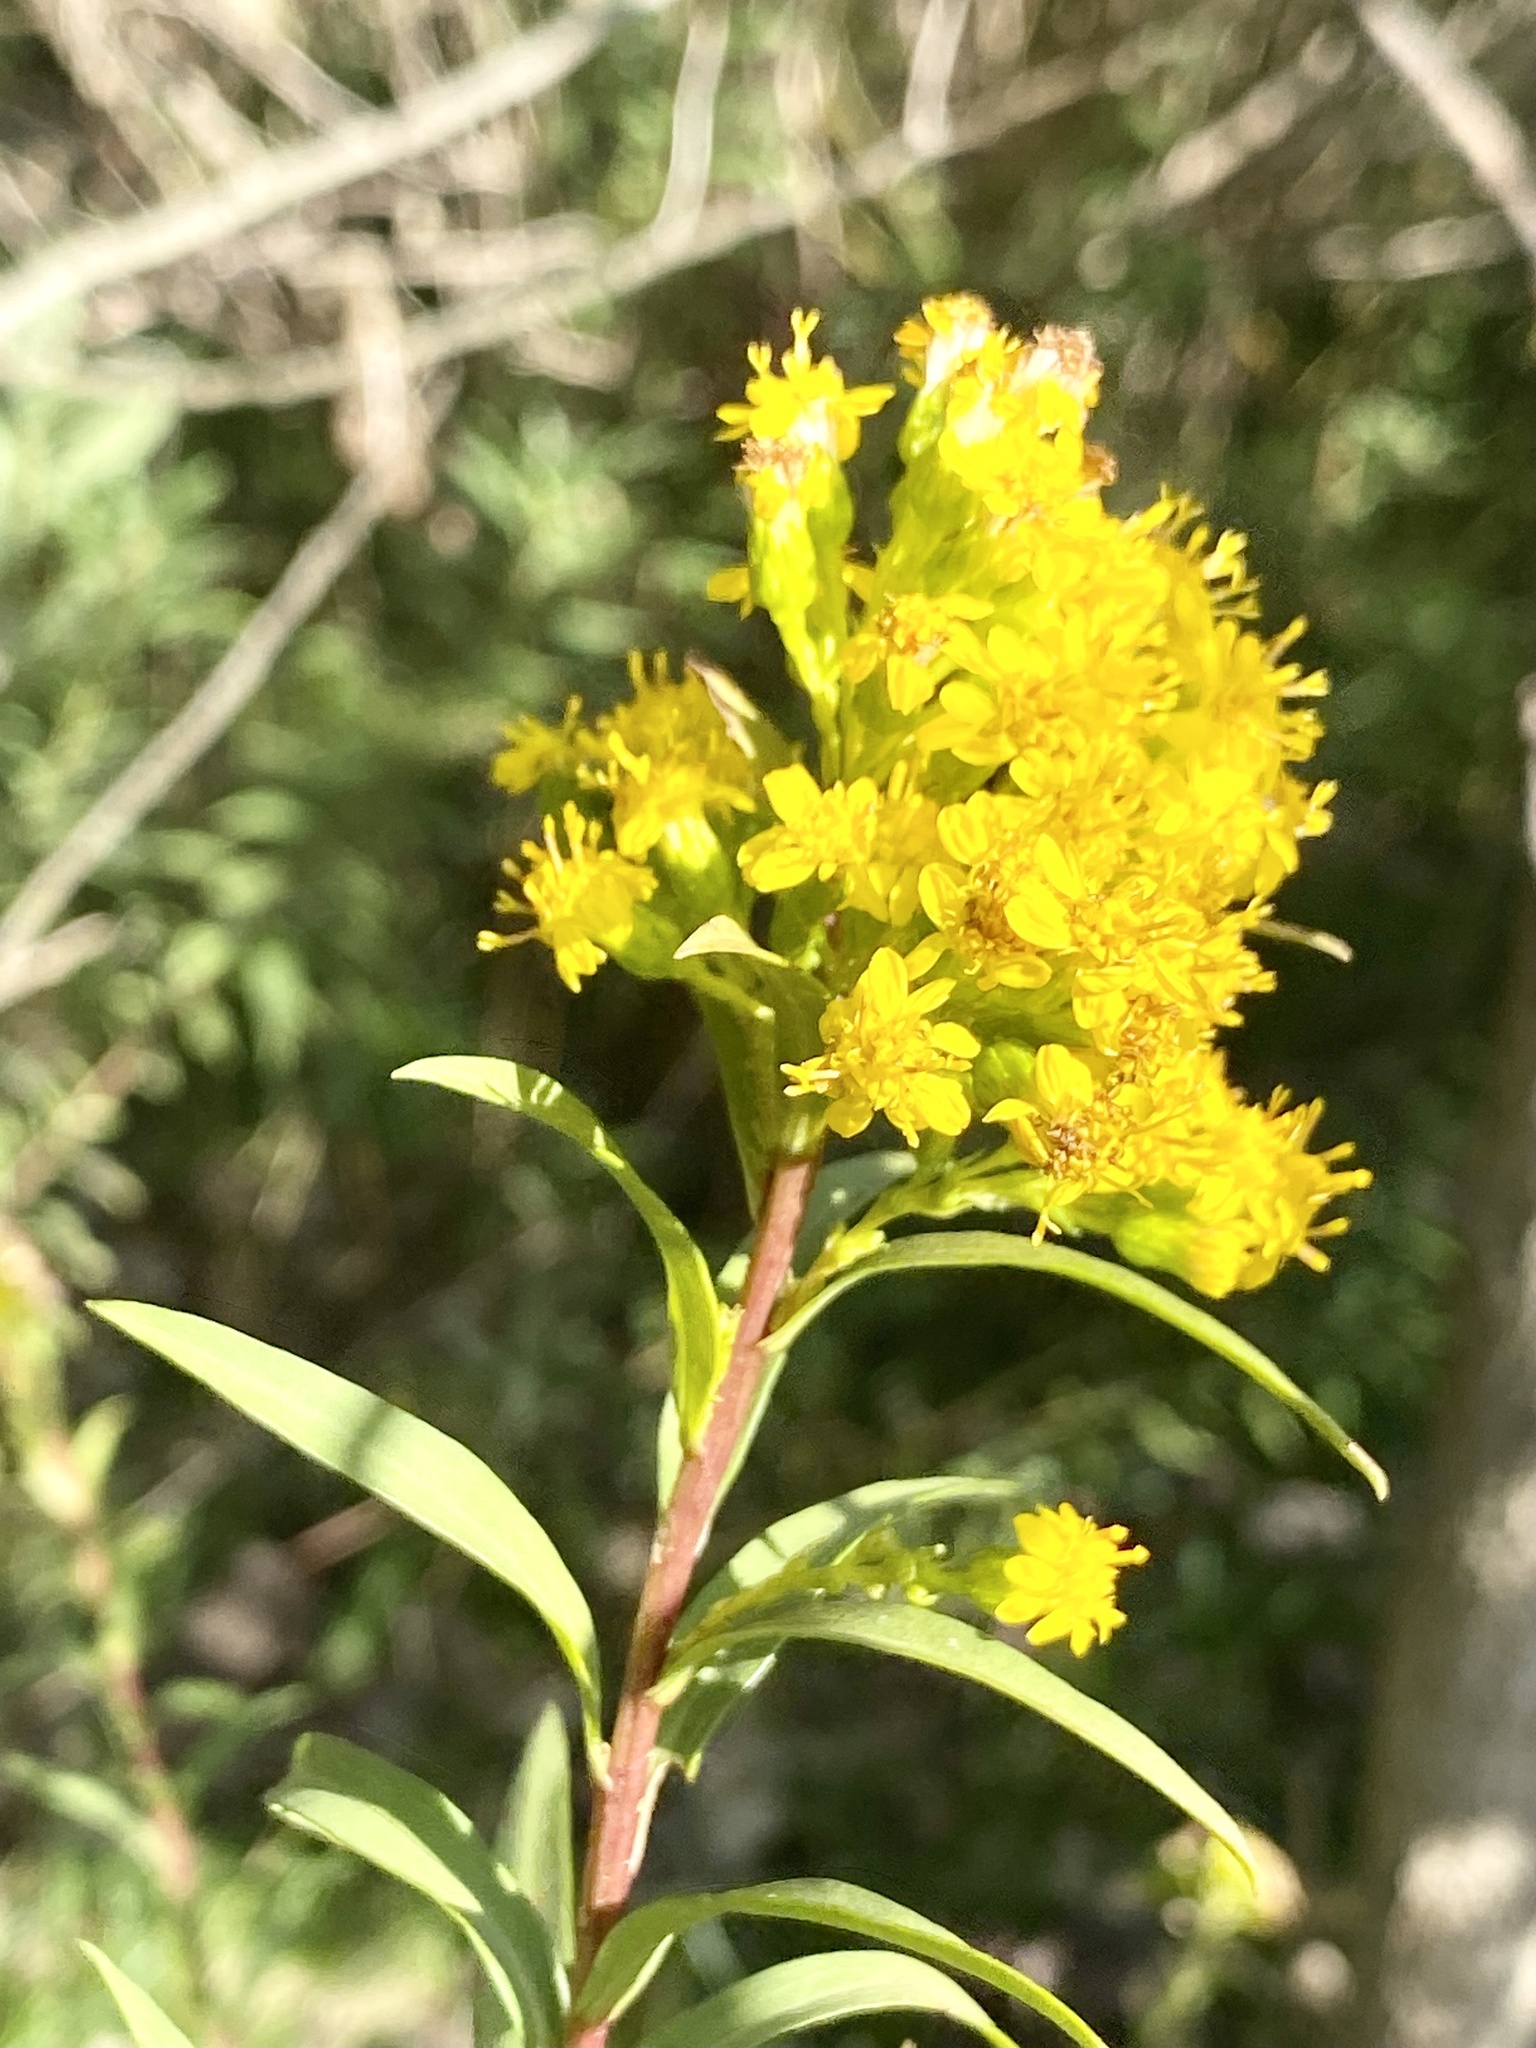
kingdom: Plantae
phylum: Tracheophyta
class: Magnoliopsida
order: Asterales
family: Asteraceae
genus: Solidago
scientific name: Solidago sempervirens
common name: Salt-marsh goldenrod
